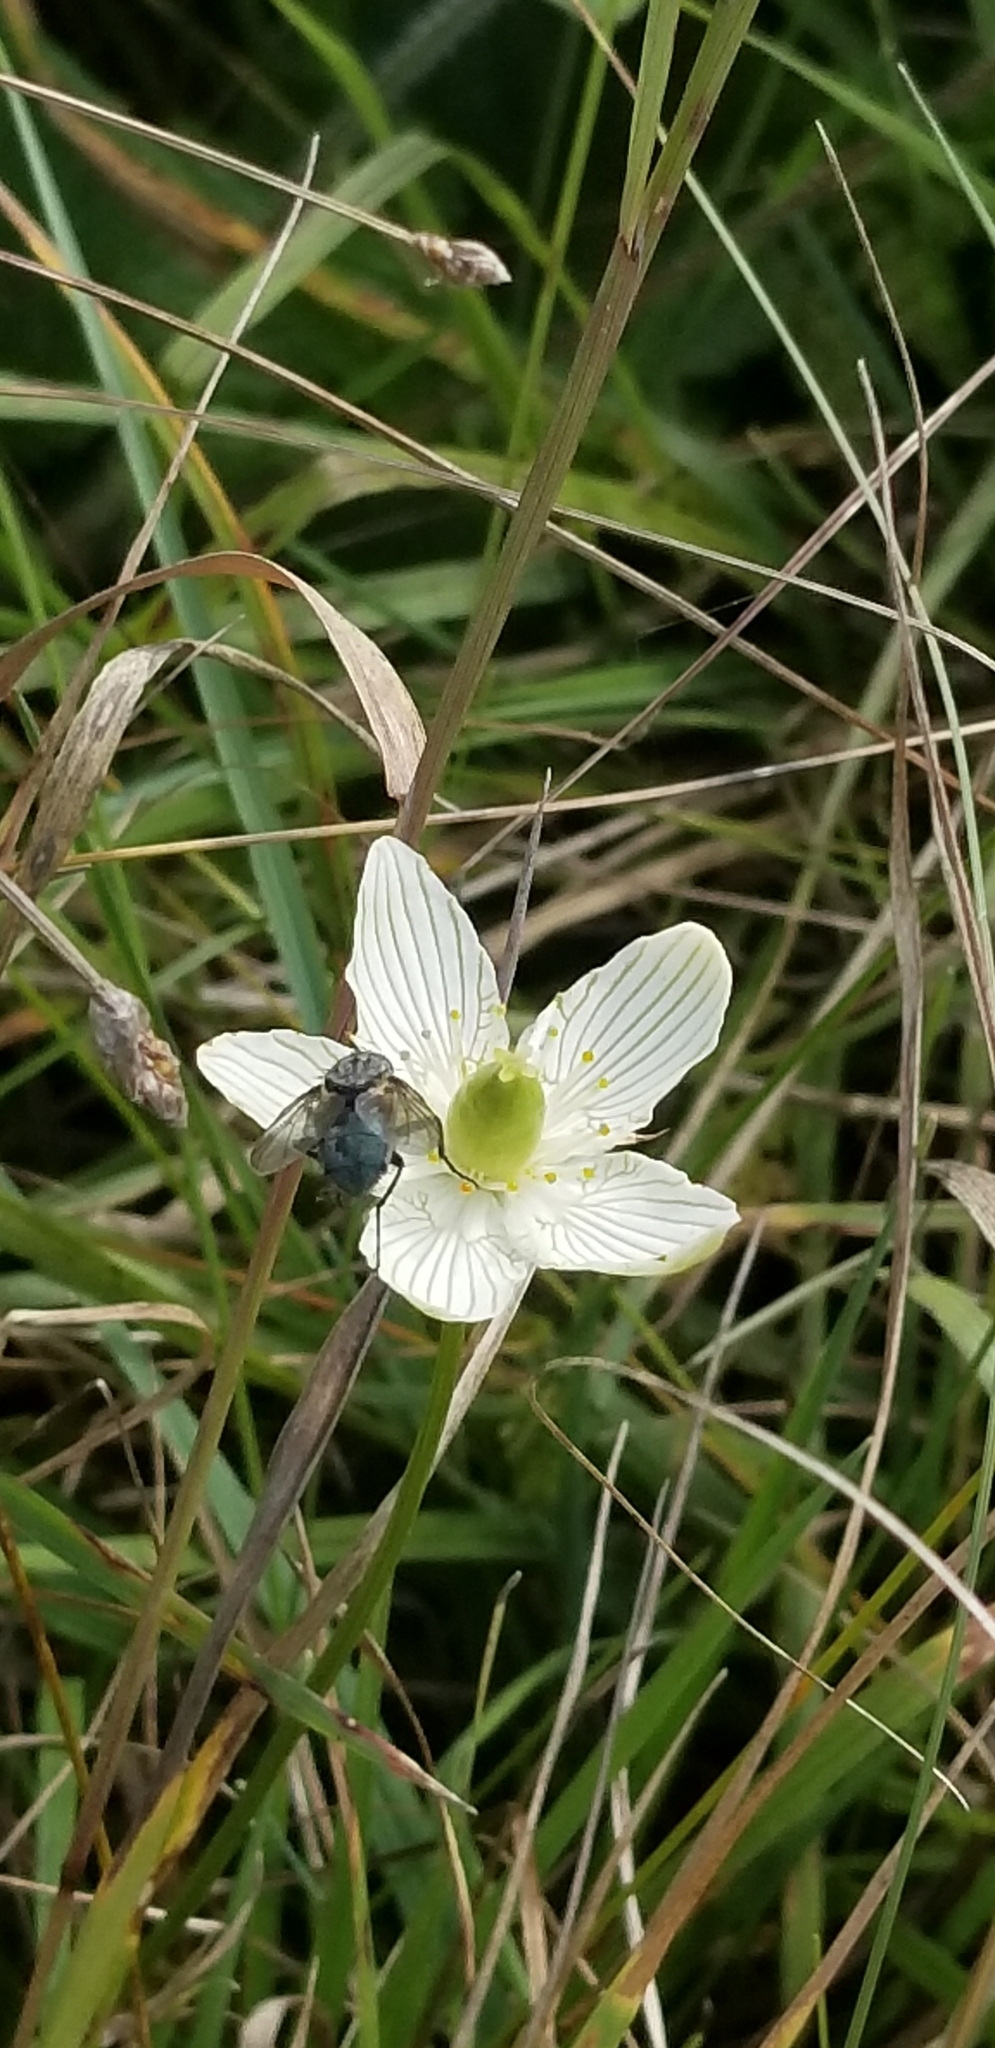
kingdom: Plantae
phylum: Tracheophyta
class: Magnoliopsida
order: Celastrales
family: Parnassiaceae
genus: Parnassia
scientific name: Parnassia glauca
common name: American grass-of-parnassus
